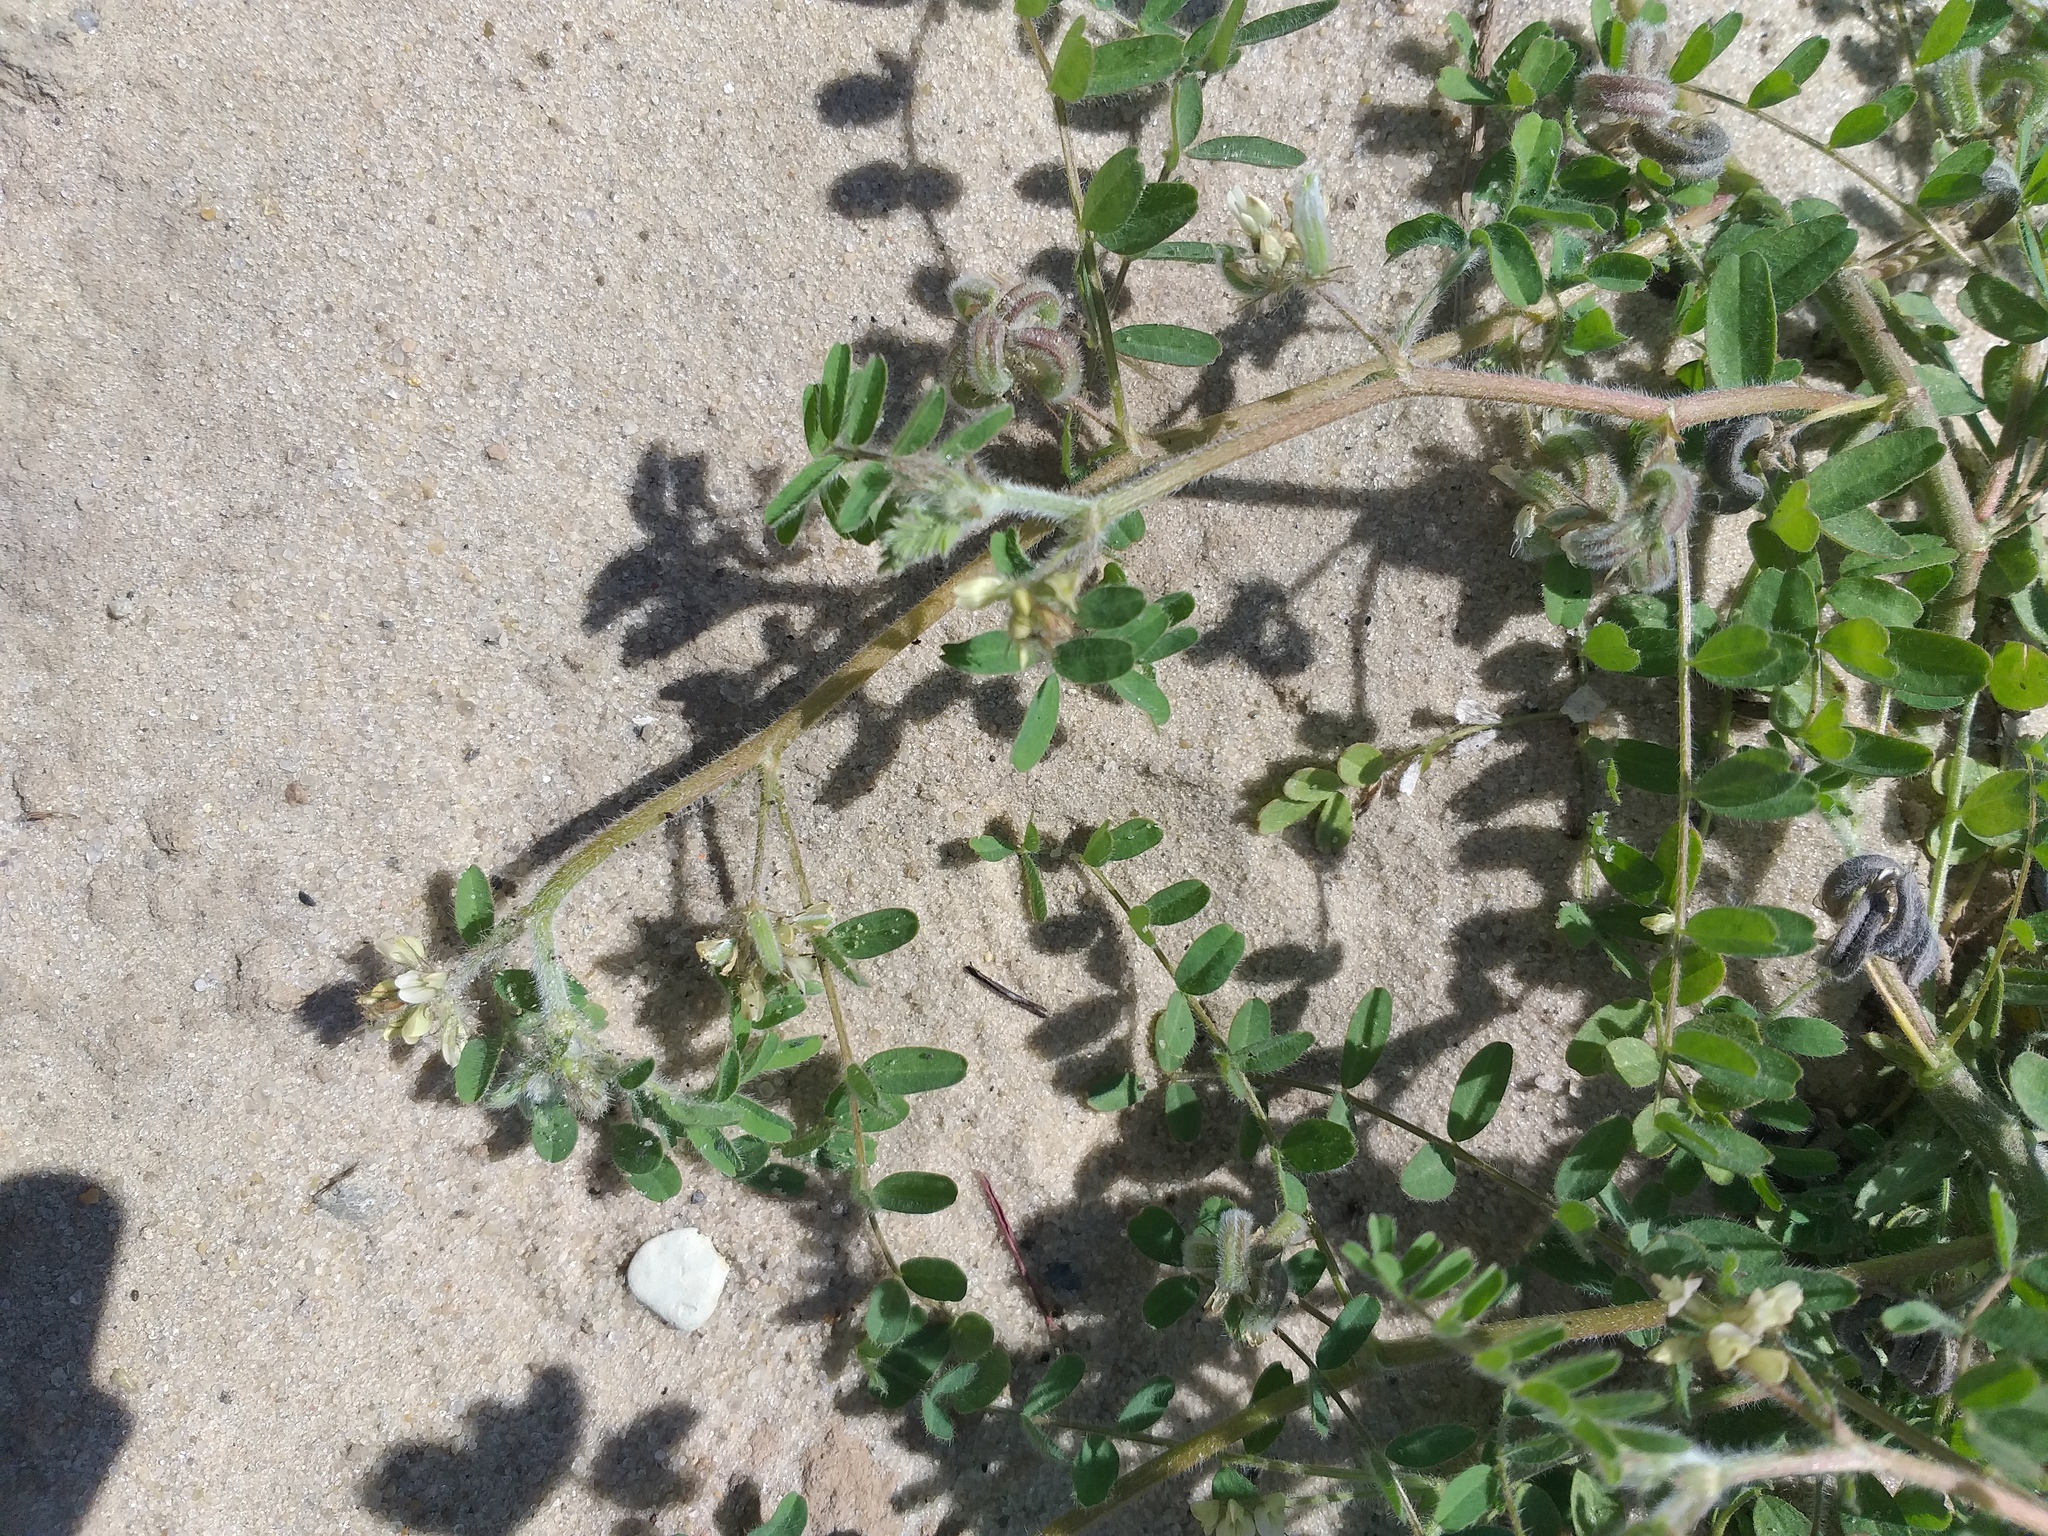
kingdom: Plantae
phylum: Tracheophyta
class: Magnoliopsida
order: Fabales
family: Fabaceae
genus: Astragalus
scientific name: Astragalus contortuplicatus
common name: Hungarian milkvetch
